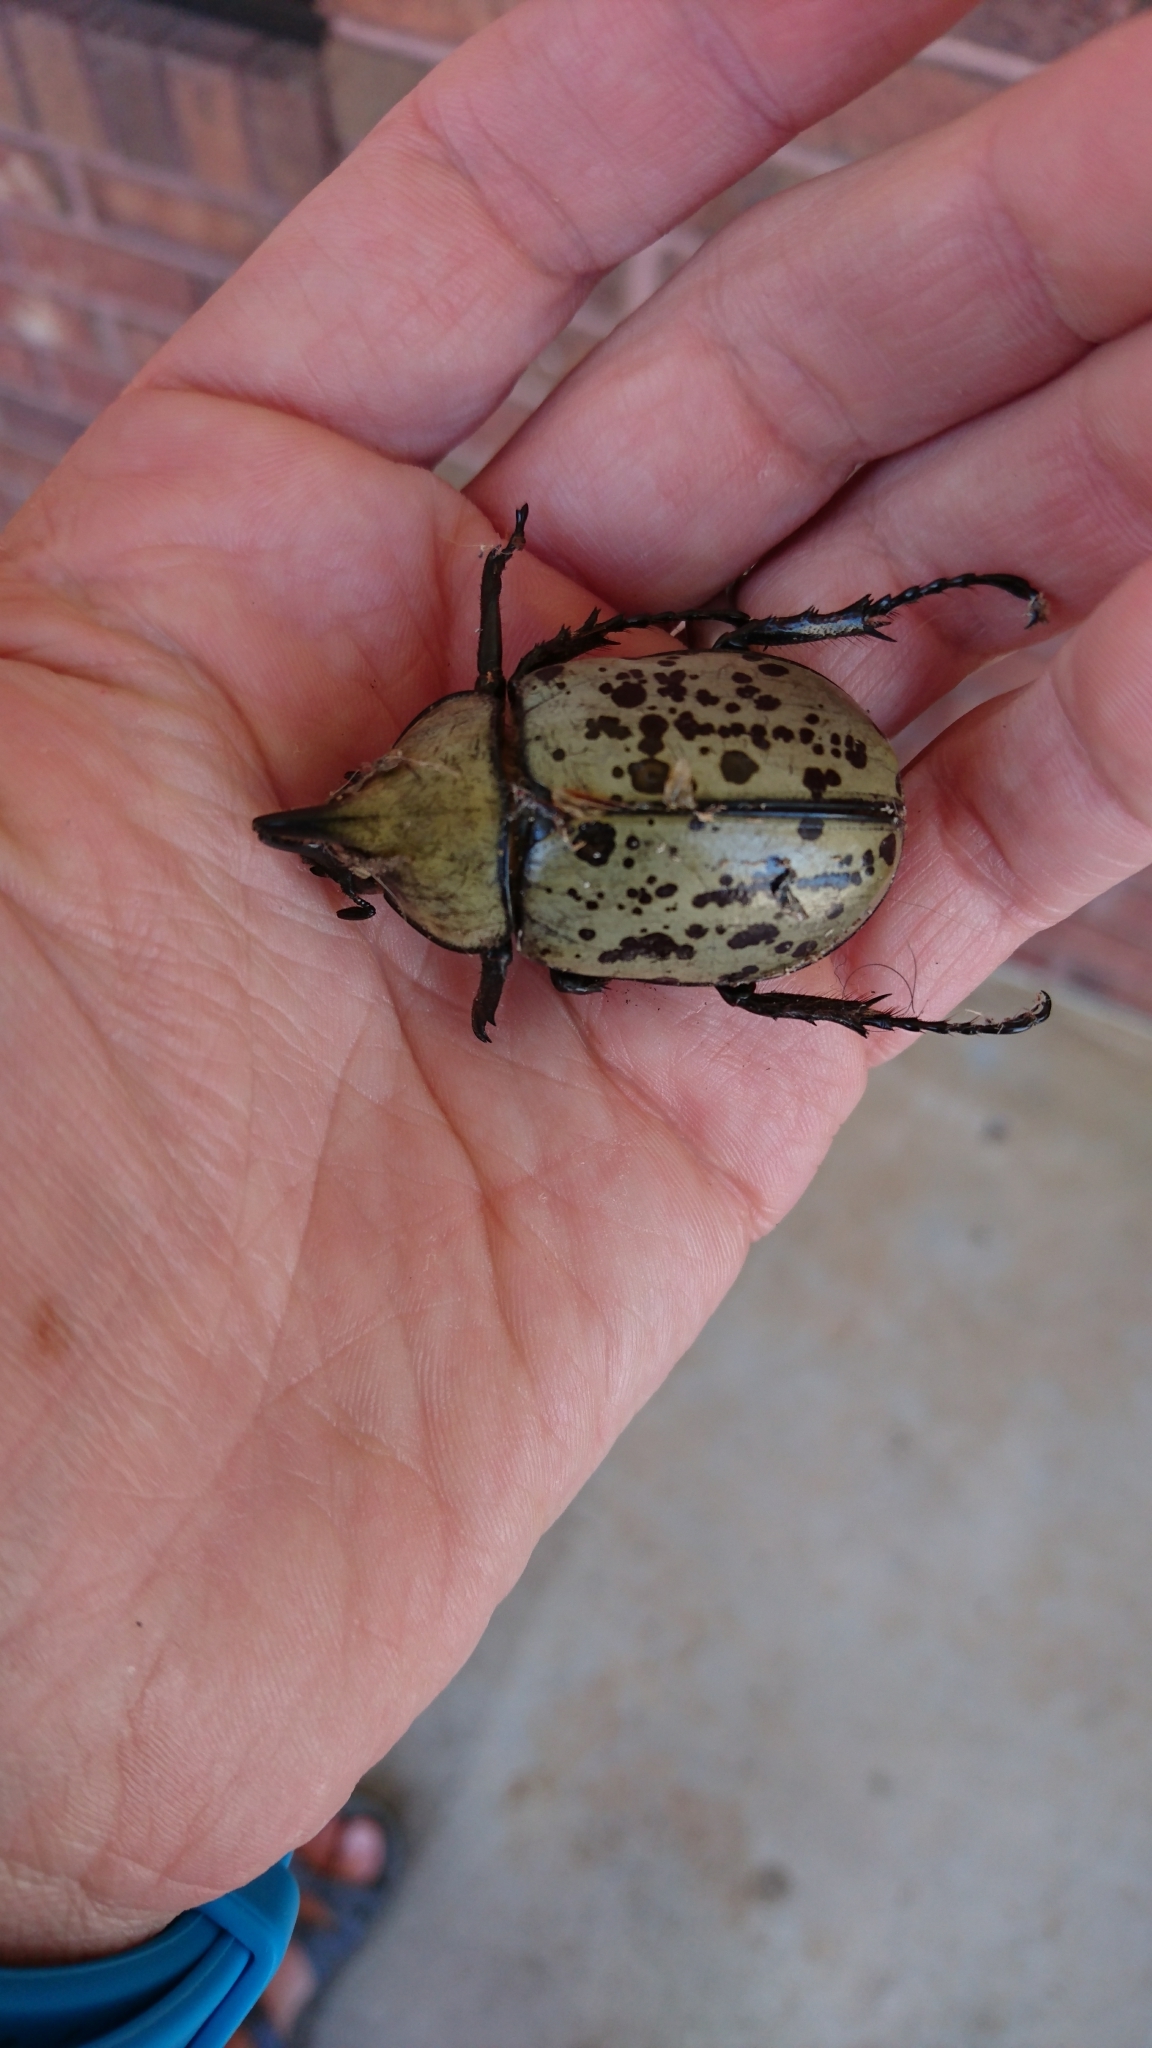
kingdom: Animalia
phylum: Arthropoda
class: Insecta
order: Coleoptera
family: Scarabaeidae
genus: Dynastes
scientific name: Dynastes tityus
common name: Eastern hercules beetle
